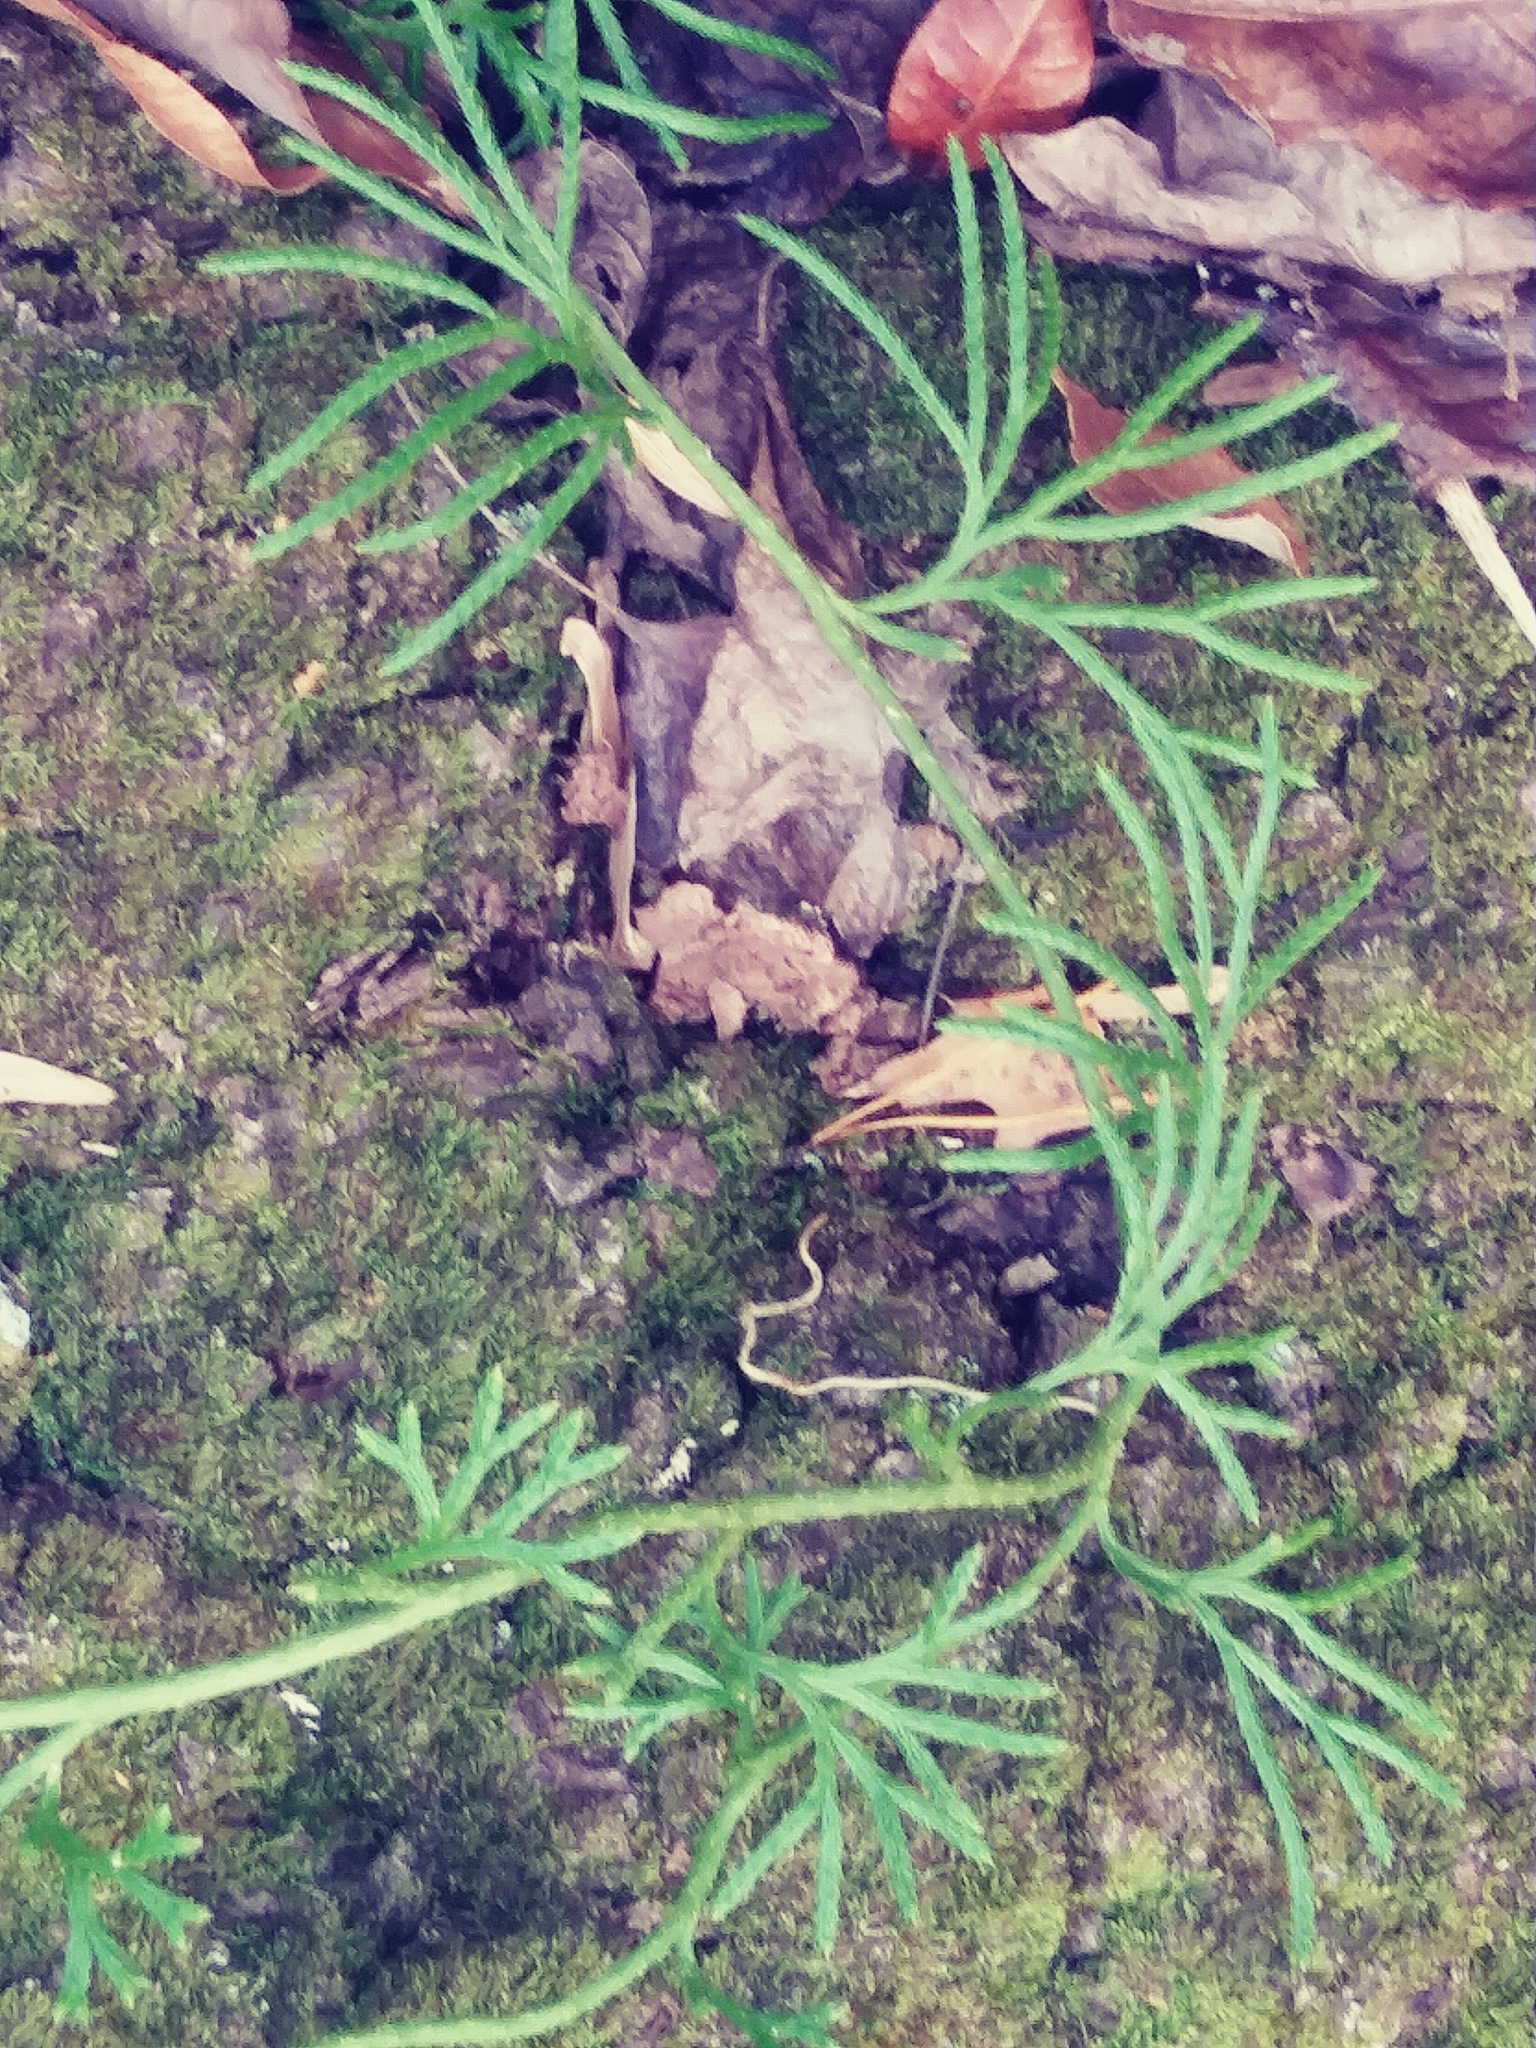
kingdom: Plantae
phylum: Tracheophyta
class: Lycopodiopsida
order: Lycopodiales
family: Lycopodiaceae
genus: Diphasiastrum
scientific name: Diphasiastrum digitatum
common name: Southern running-pine
